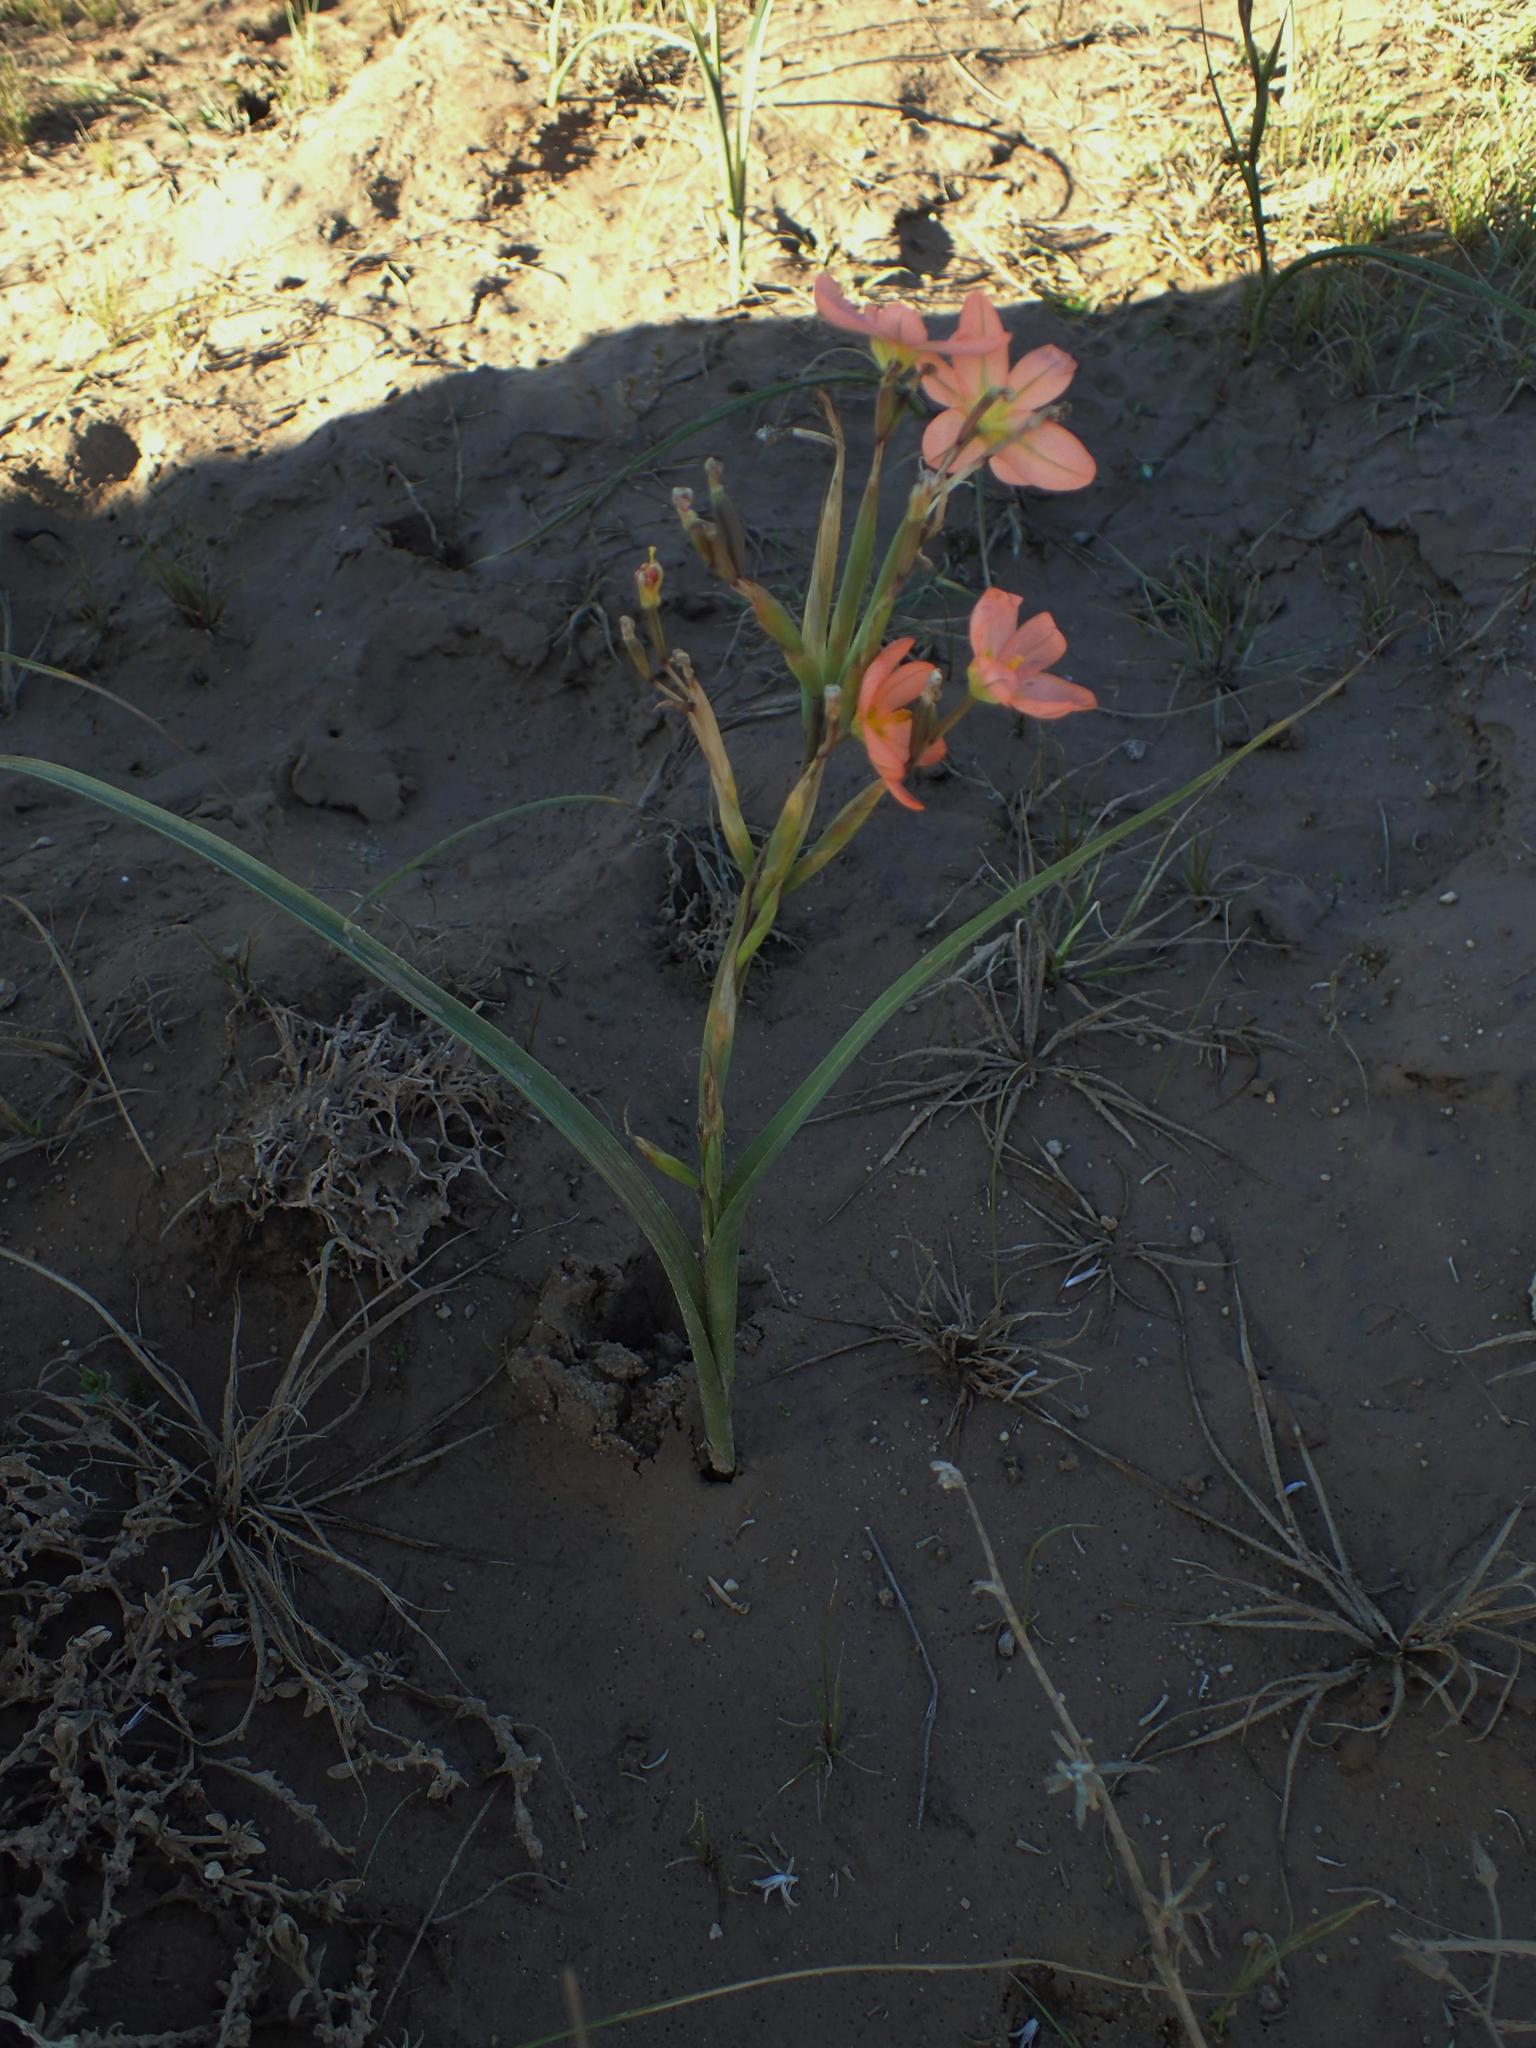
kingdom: Plantae
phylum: Tracheophyta
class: Liliopsida
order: Asparagales
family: Iridaceae
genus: Moraea
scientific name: Moraea miniata
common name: Two-leaf cape-tulip
